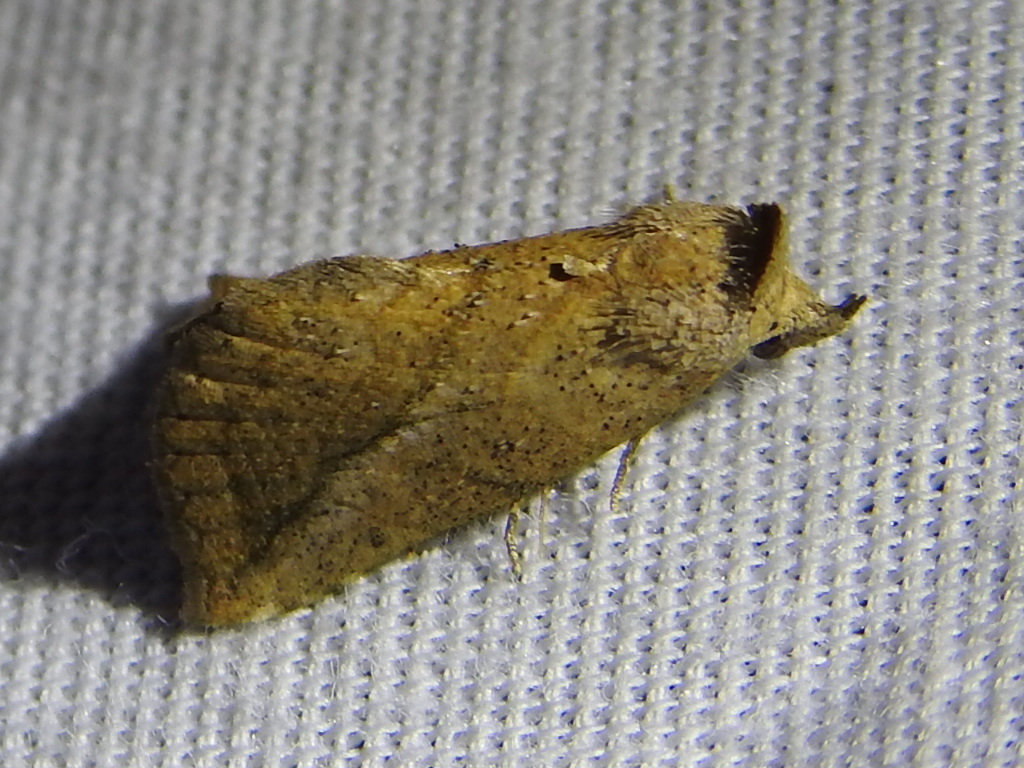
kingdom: Animalia
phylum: Arthropoda
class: Insecta
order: Lepidoptera
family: Erebidae
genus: Isogona
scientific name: Isogona snowi
